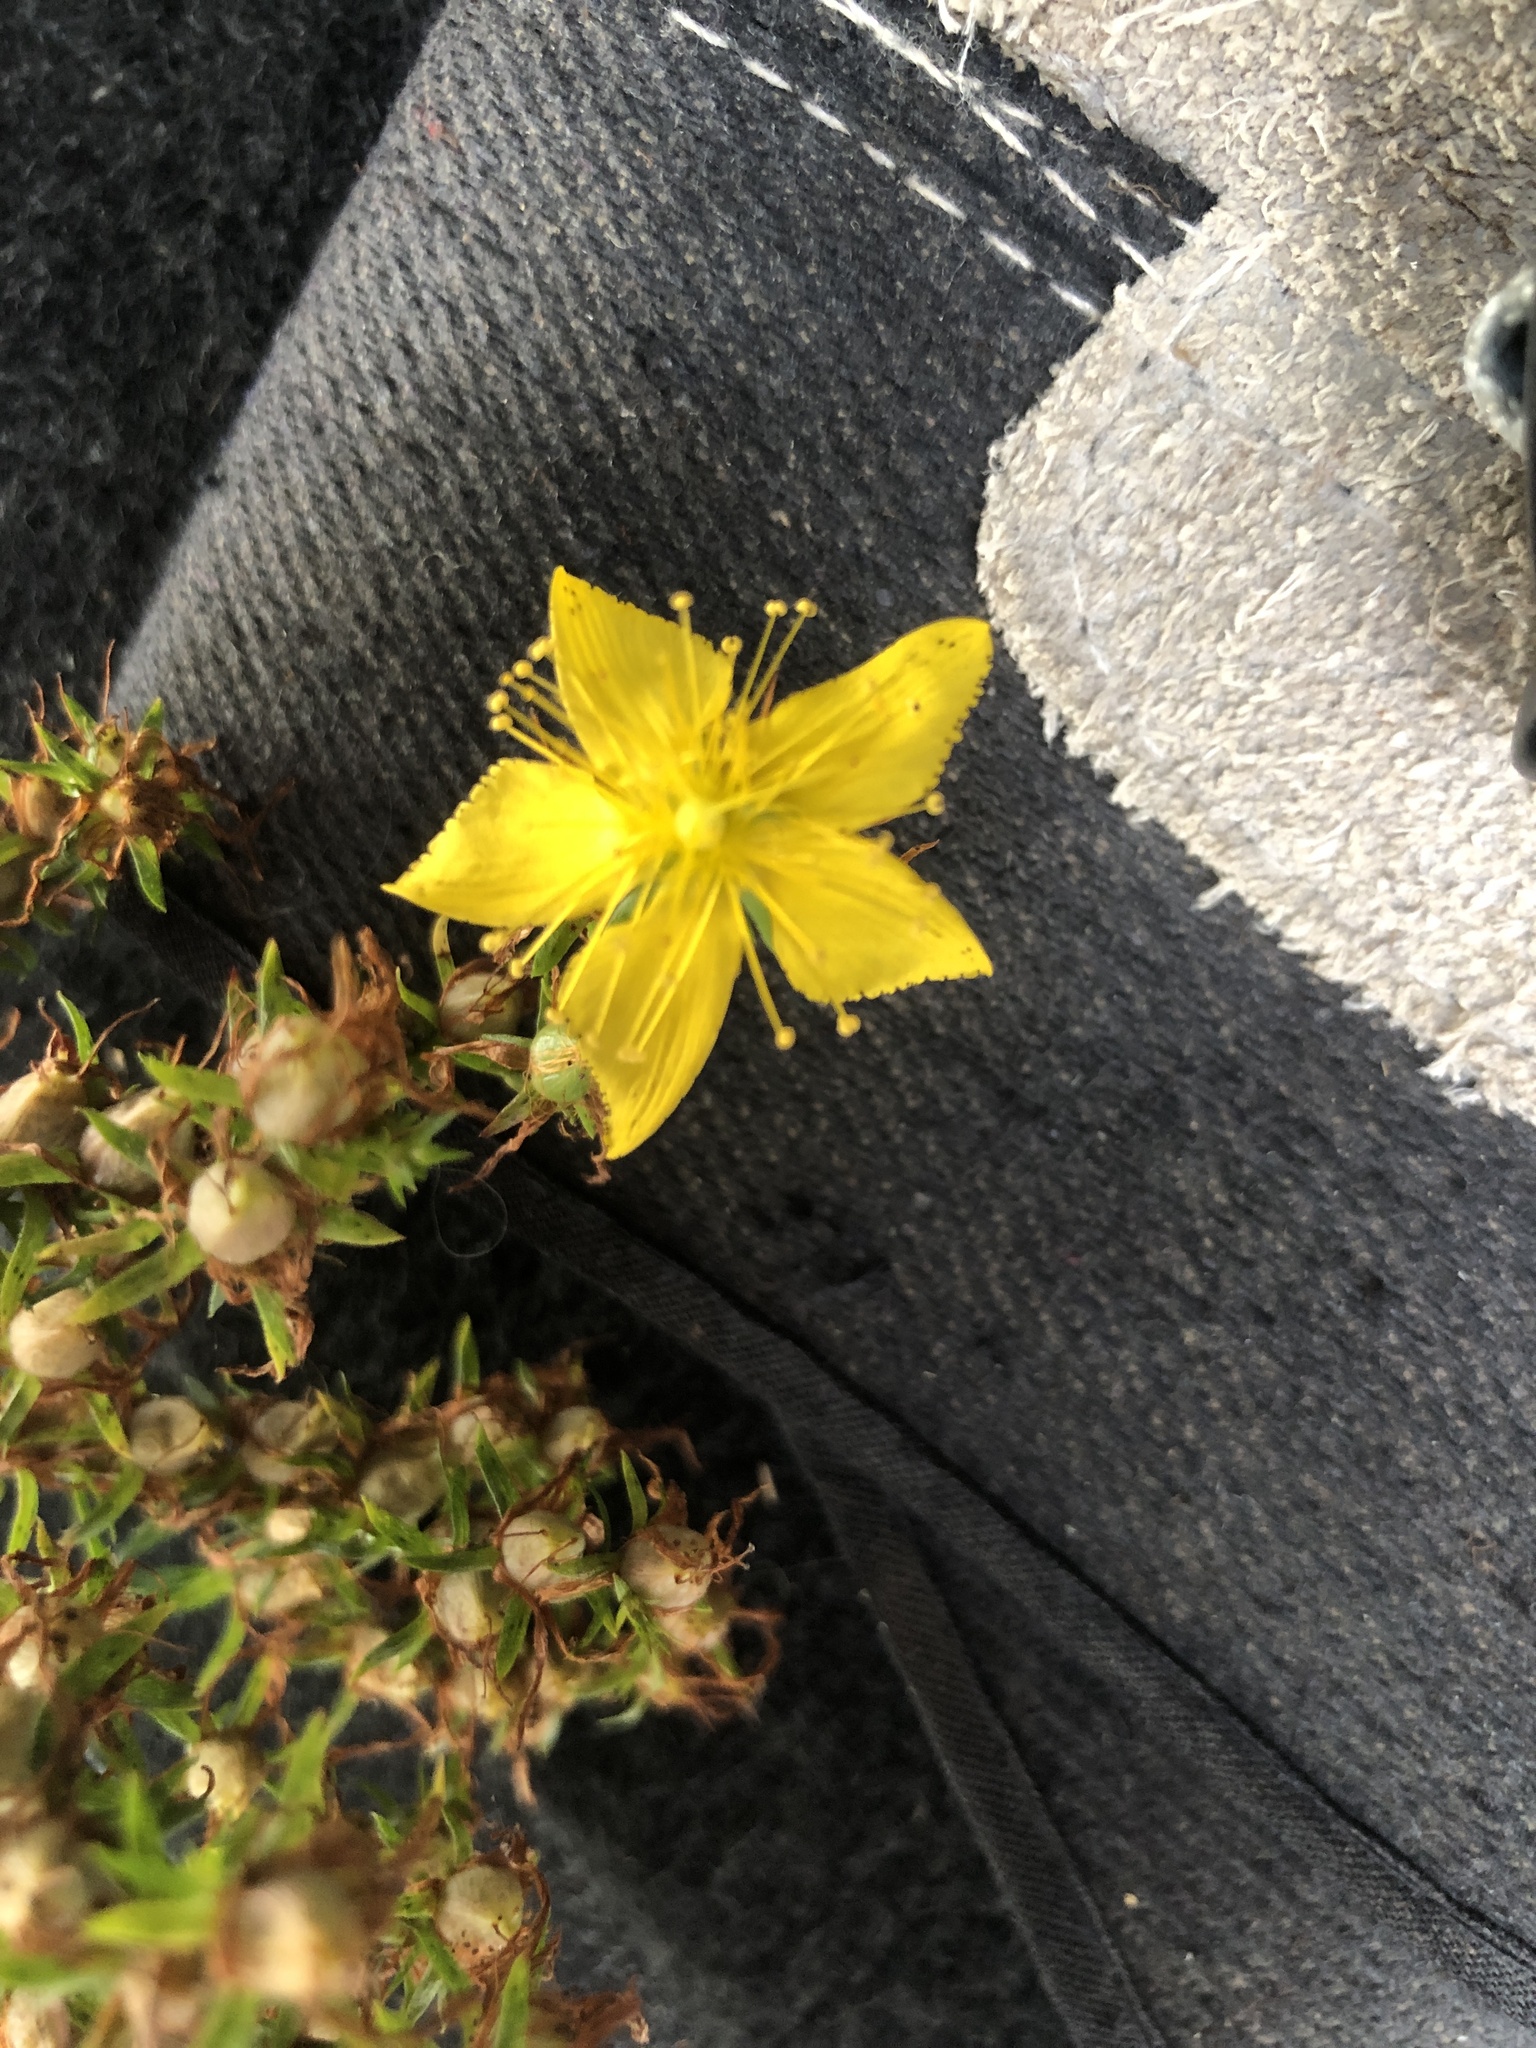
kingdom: Plantae
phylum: Tracheophyta
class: Magnoliopsida
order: Malpighiales
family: Hypericaceae
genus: Hypericum
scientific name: Hypericum perforatum
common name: Common st. johnswort
